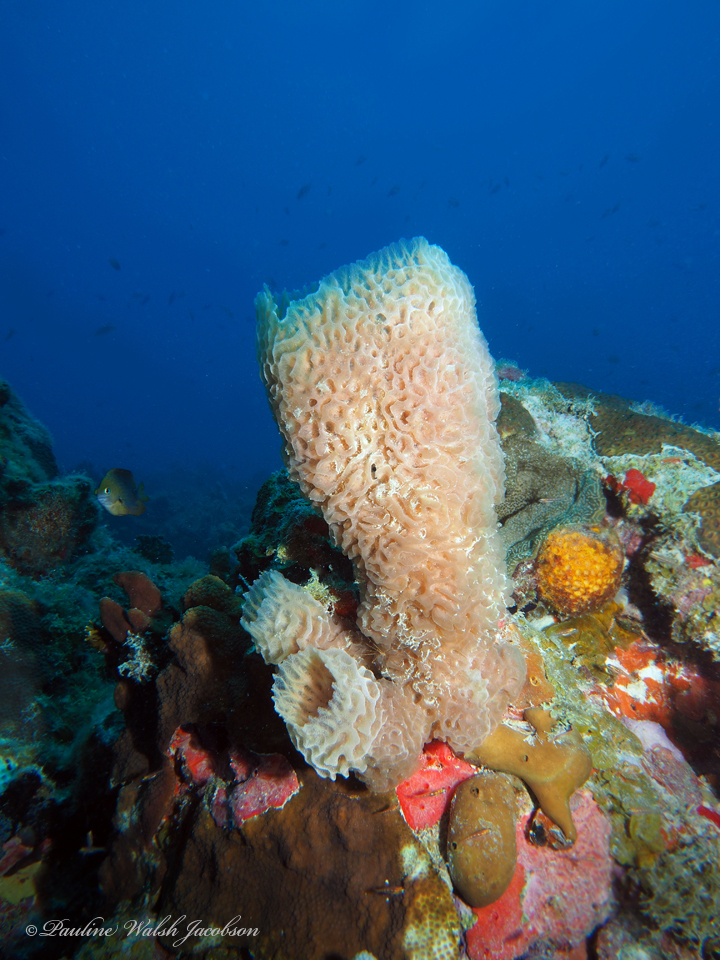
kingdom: Animalia
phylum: Porifera
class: Demospongiae
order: Haplosclerida
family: Callyspongiidae
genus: Callyspongia
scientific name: Callyspongia plicifera
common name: Azure vase sponge
